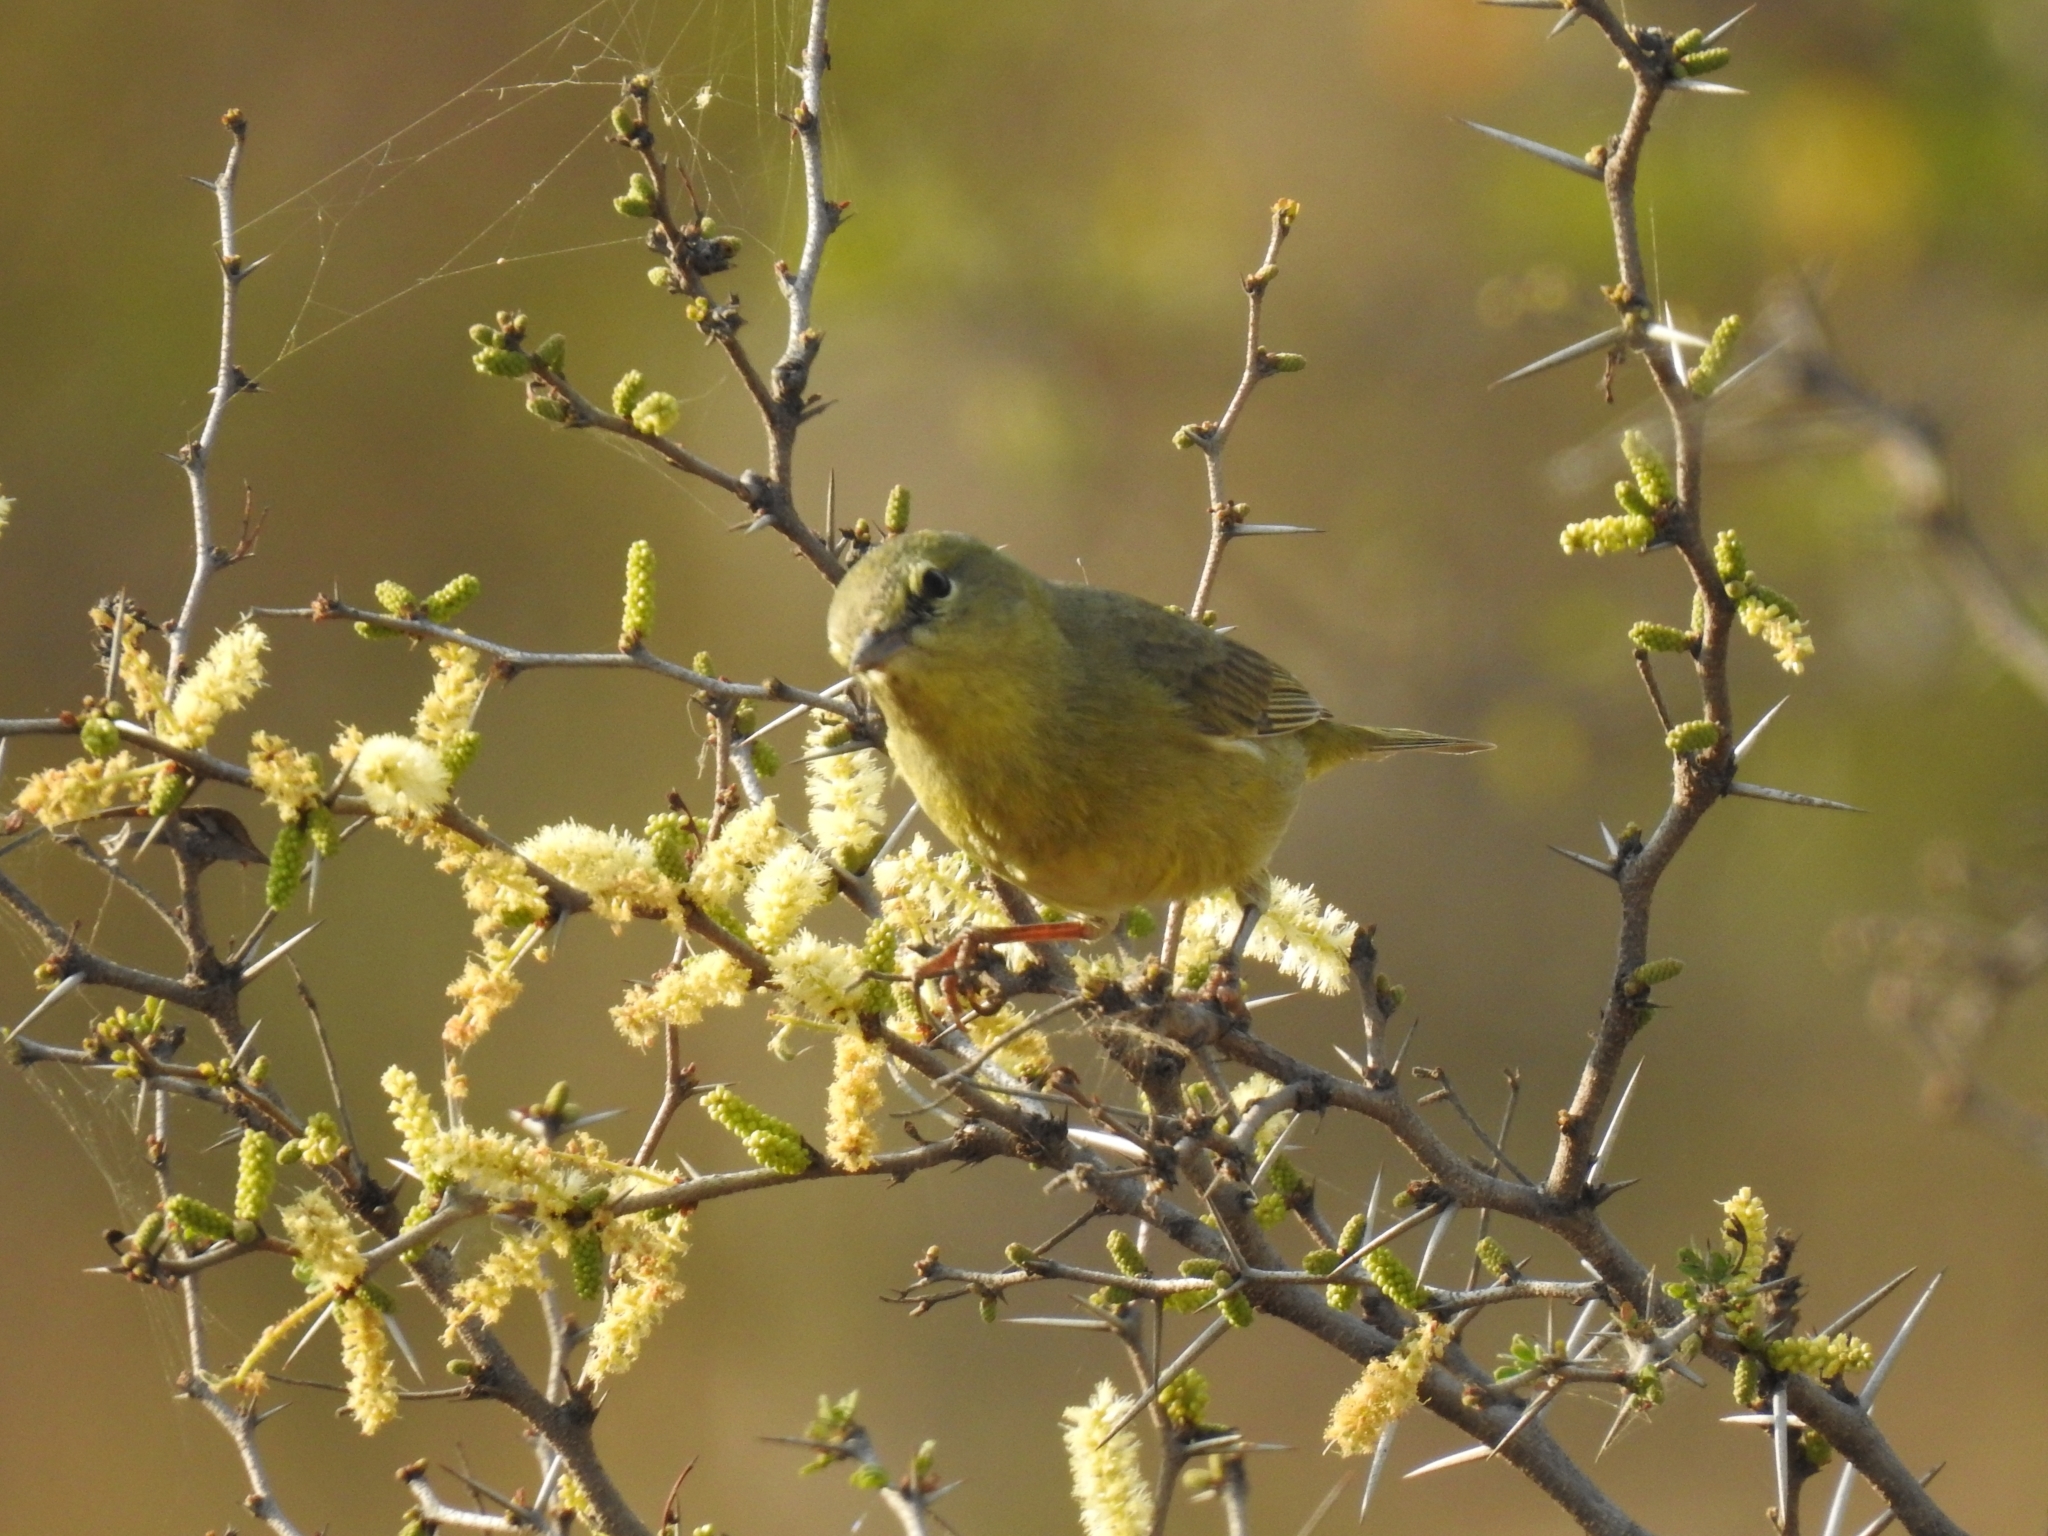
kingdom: Animalia
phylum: Chordata
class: Aves
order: Passeriformes
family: Parulidae
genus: Leiothlypis
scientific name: Leiothlypis celata
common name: Orange-crowned warbler
